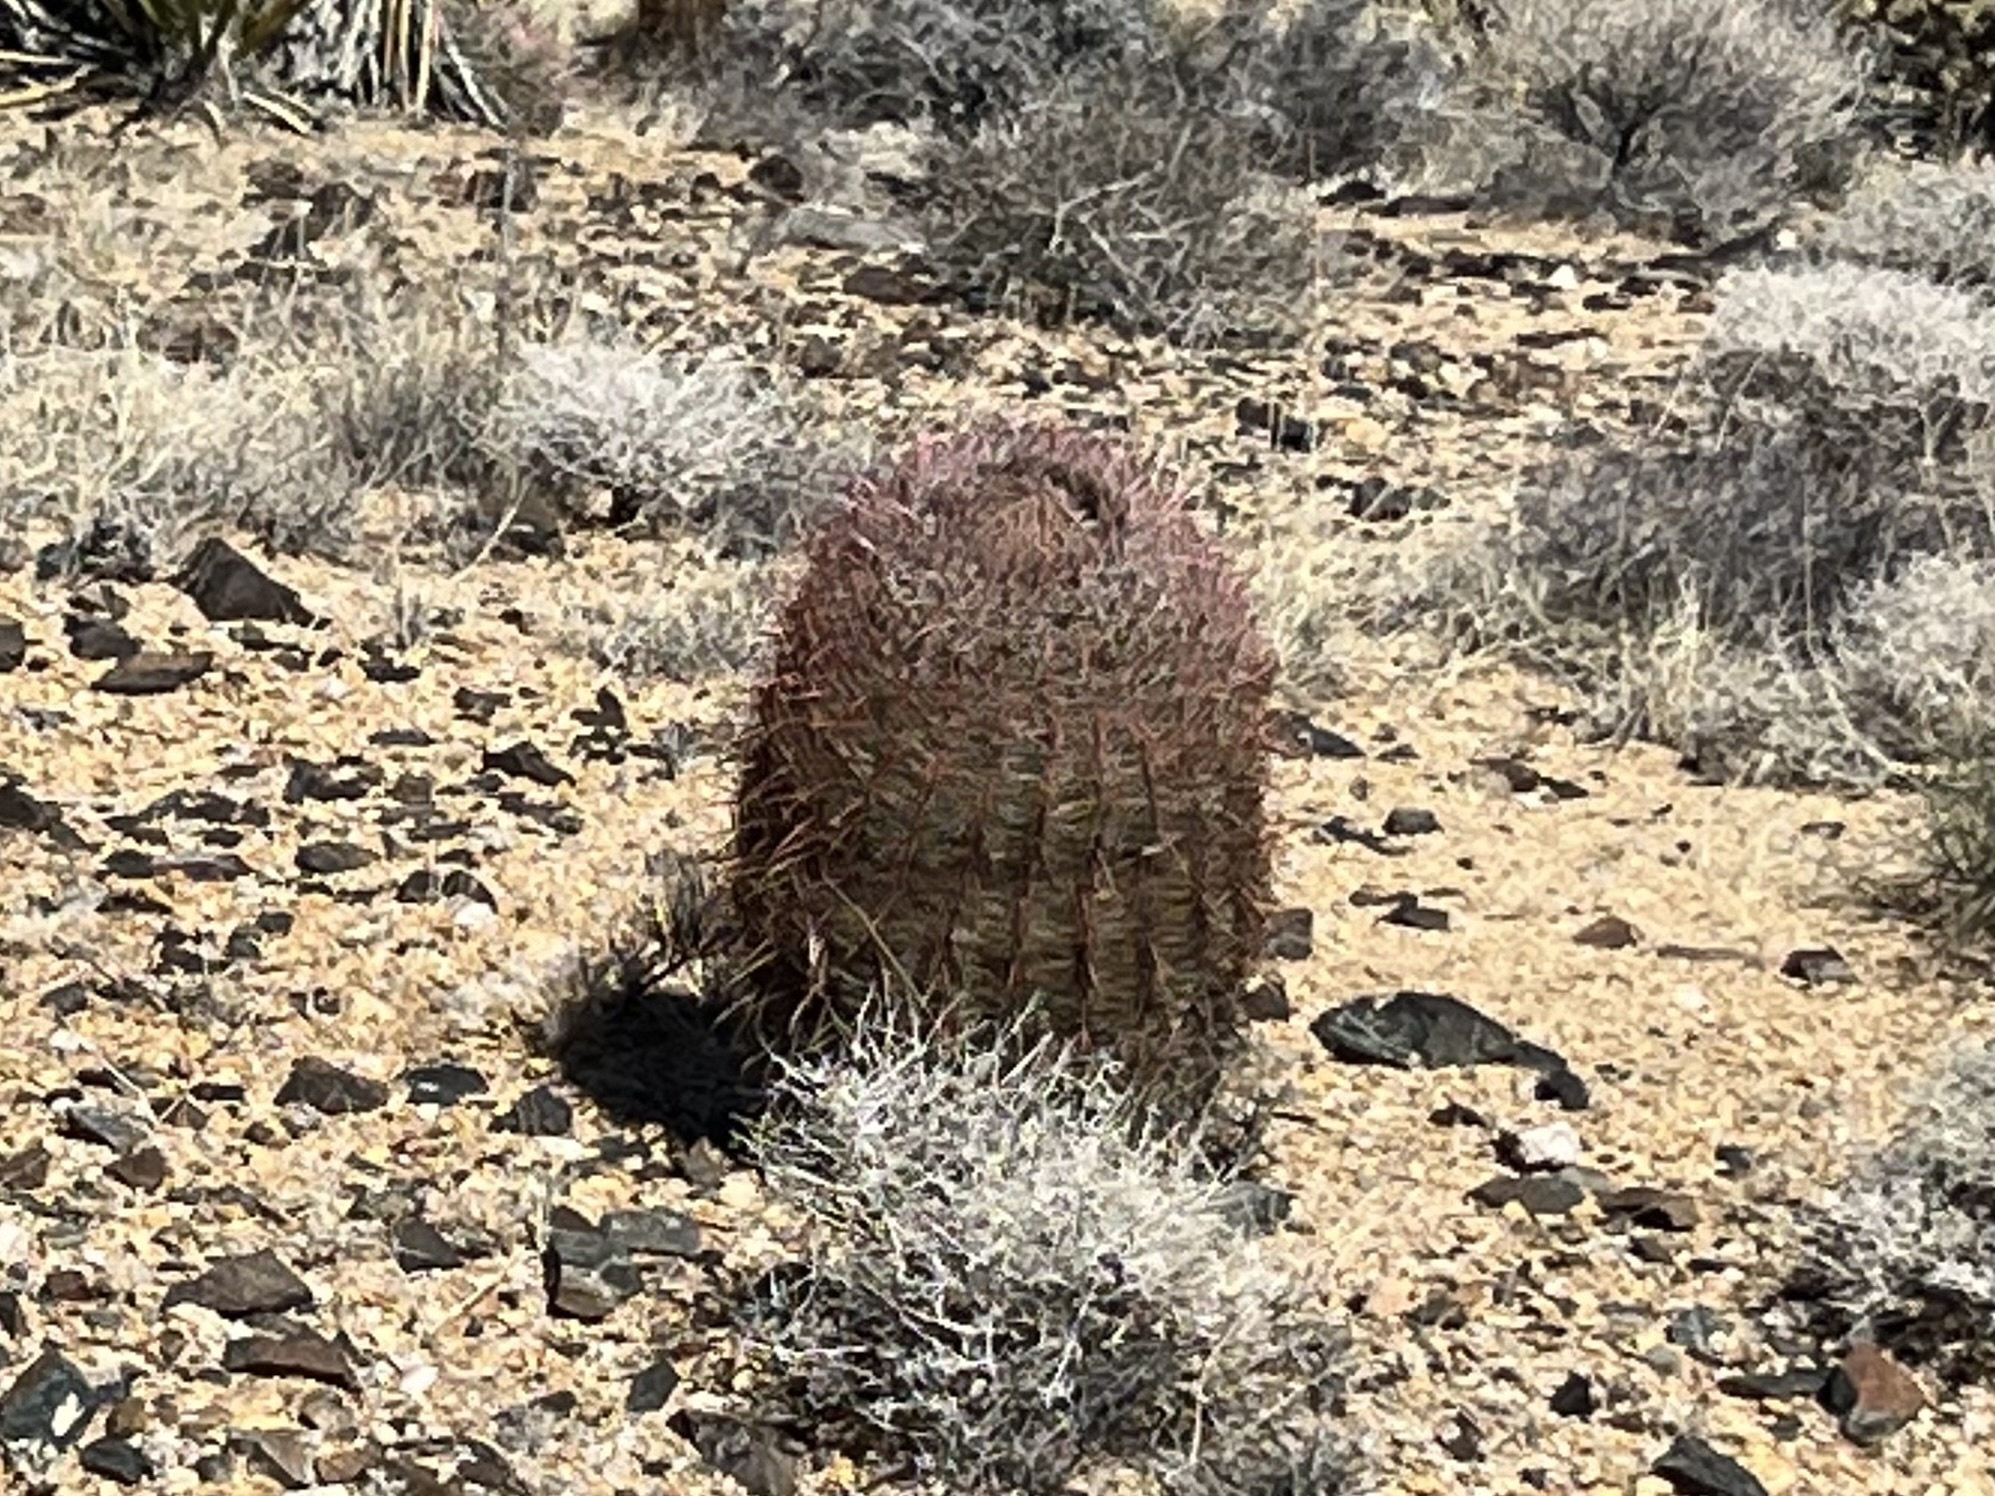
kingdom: Plantae
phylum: Tracheophyta
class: Magnoliopsida
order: Caryophyllales
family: Cactaceae
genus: Ferocactus
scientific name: Ferocactus cylindraceus
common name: California barrel cactus
